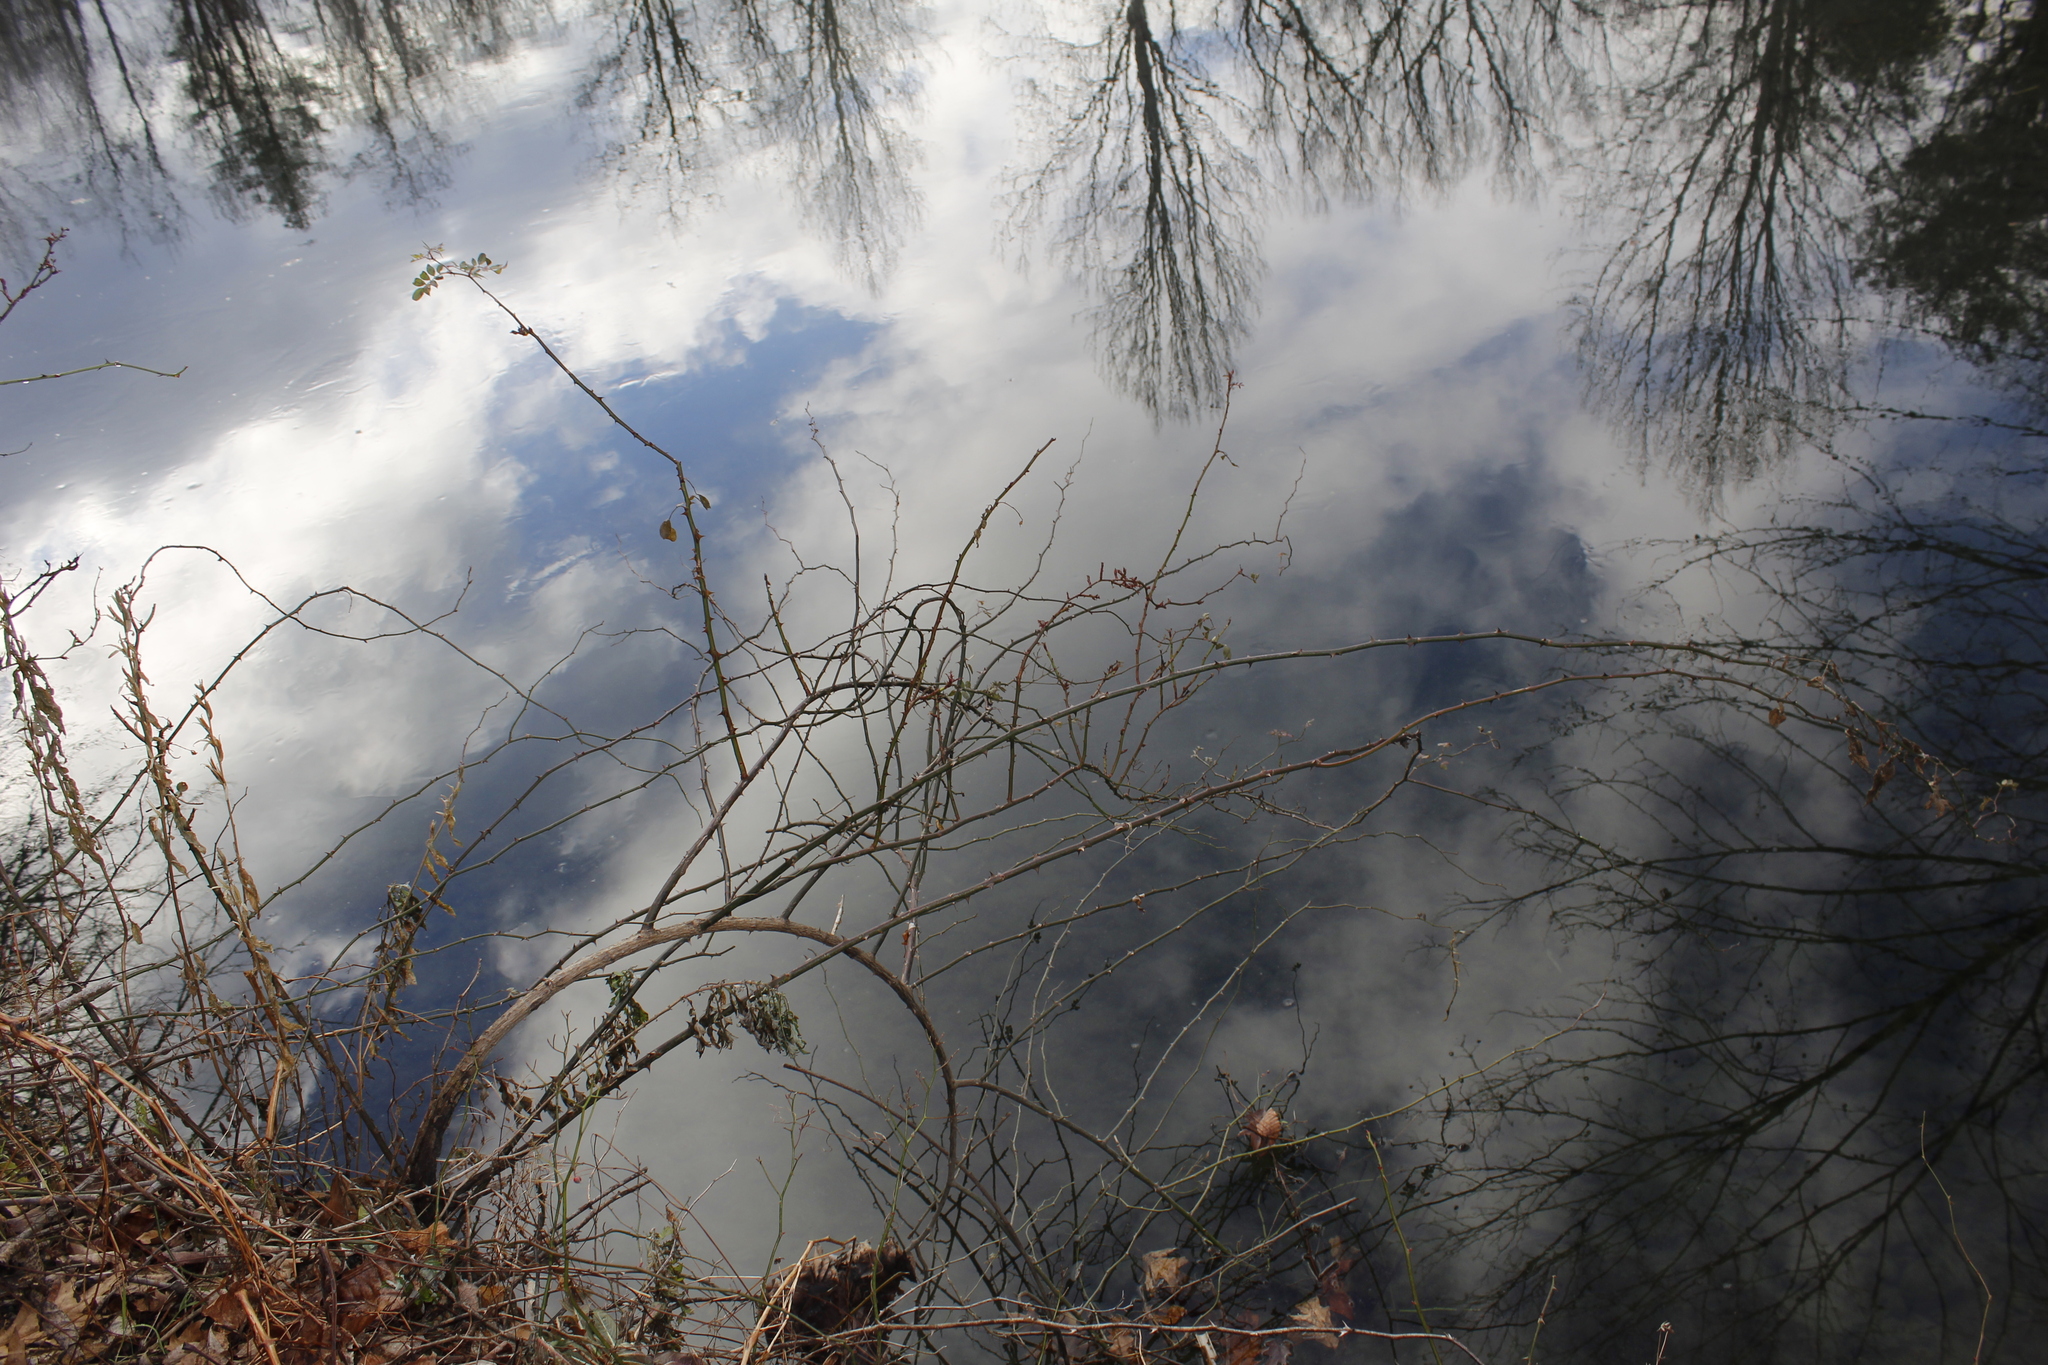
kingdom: Plantae
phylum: Tracheophyta
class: Magnoliopsida
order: Rosales
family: Rosaceae
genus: Rosa
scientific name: Rosa multiflora
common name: Multiflora rose
